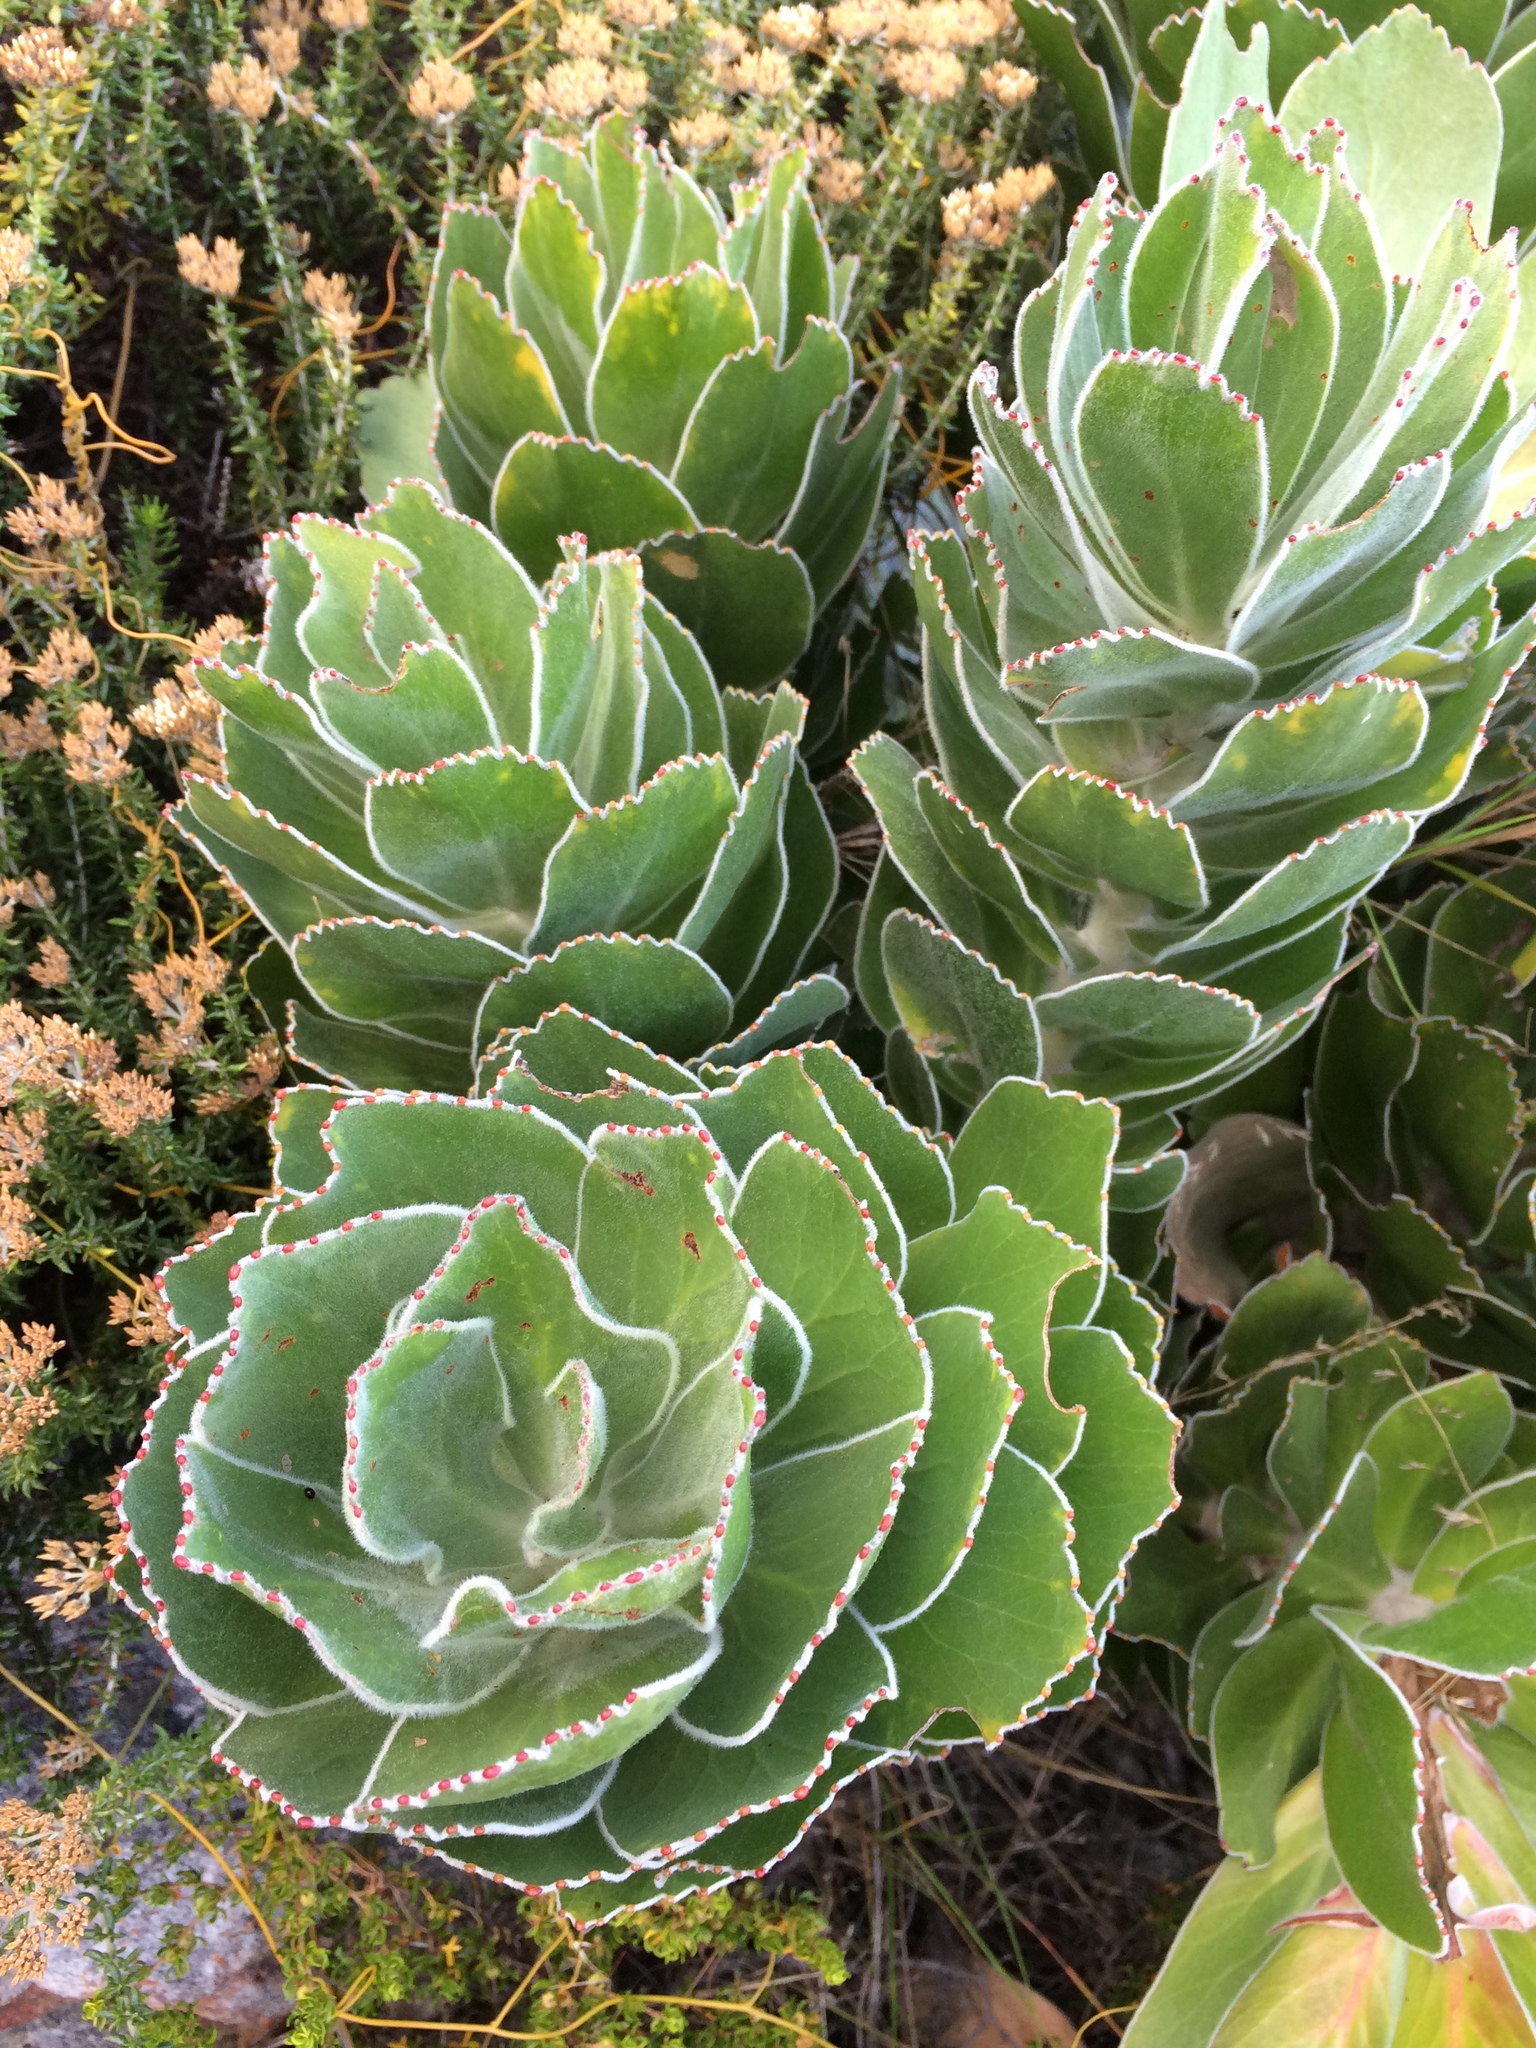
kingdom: Plantae
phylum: Tracheophyta
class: Magnoliopsida
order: Proteales
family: Proteaceae
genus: Leucospermum
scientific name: Leucospermum conocarpodendron
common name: Tree pincushion
